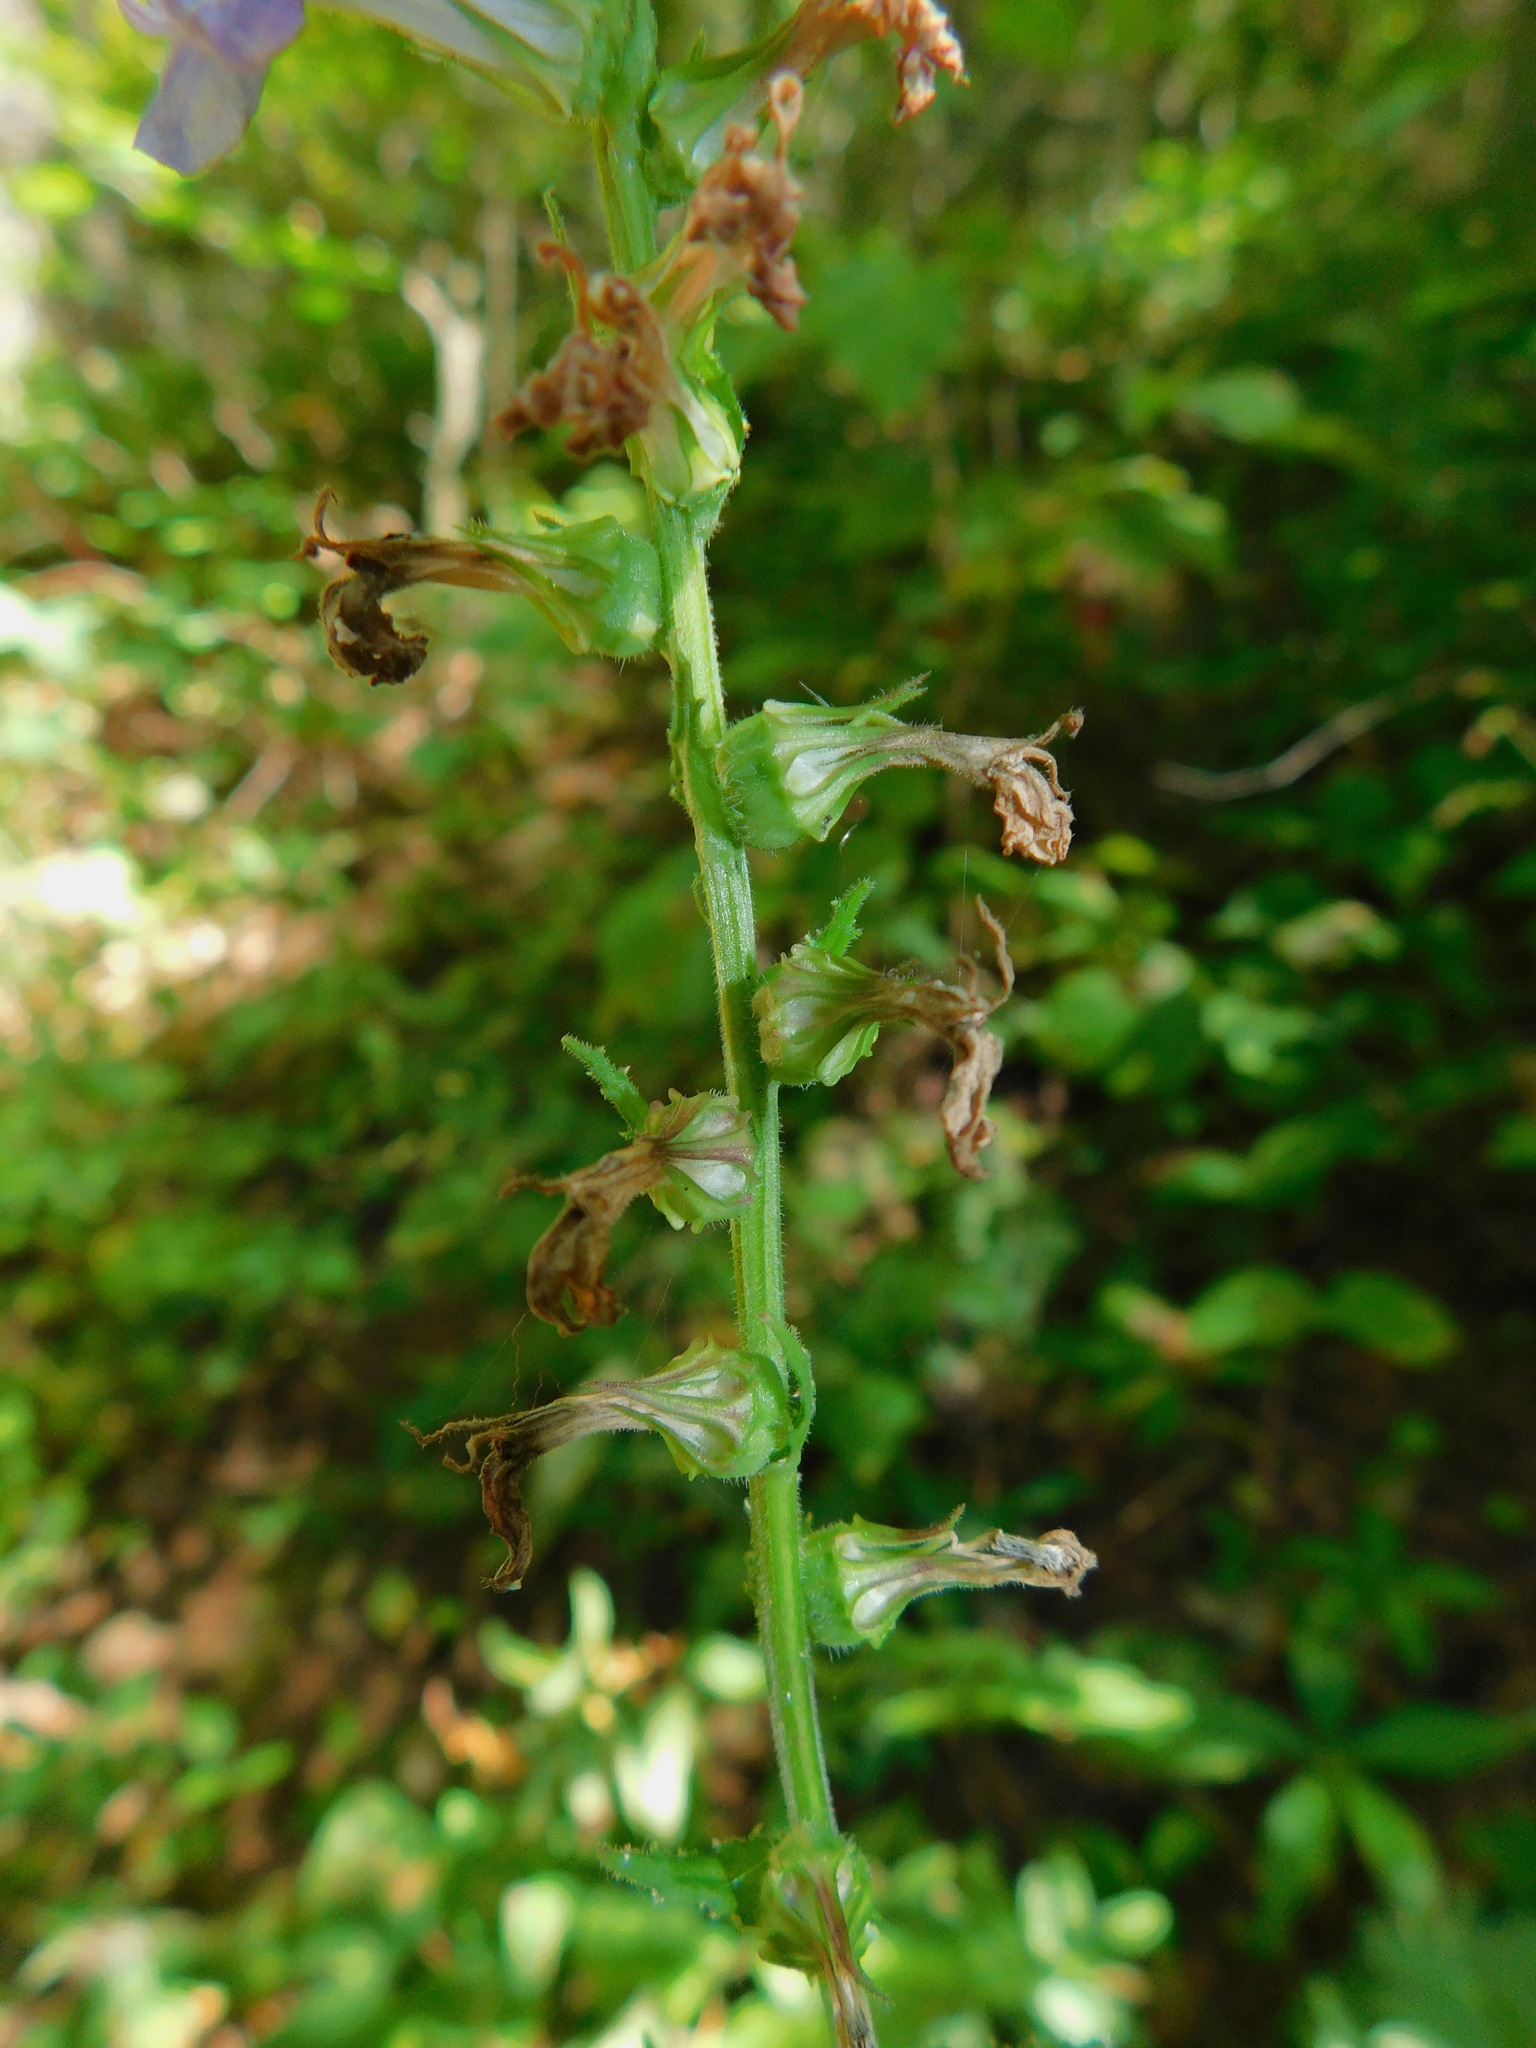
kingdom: Plantae
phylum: Tracheophyta
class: Magnoliopsida
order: Asterales
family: Campanulaceae
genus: Lobelia
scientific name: Lobelia puberula
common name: Purple dewdrop
